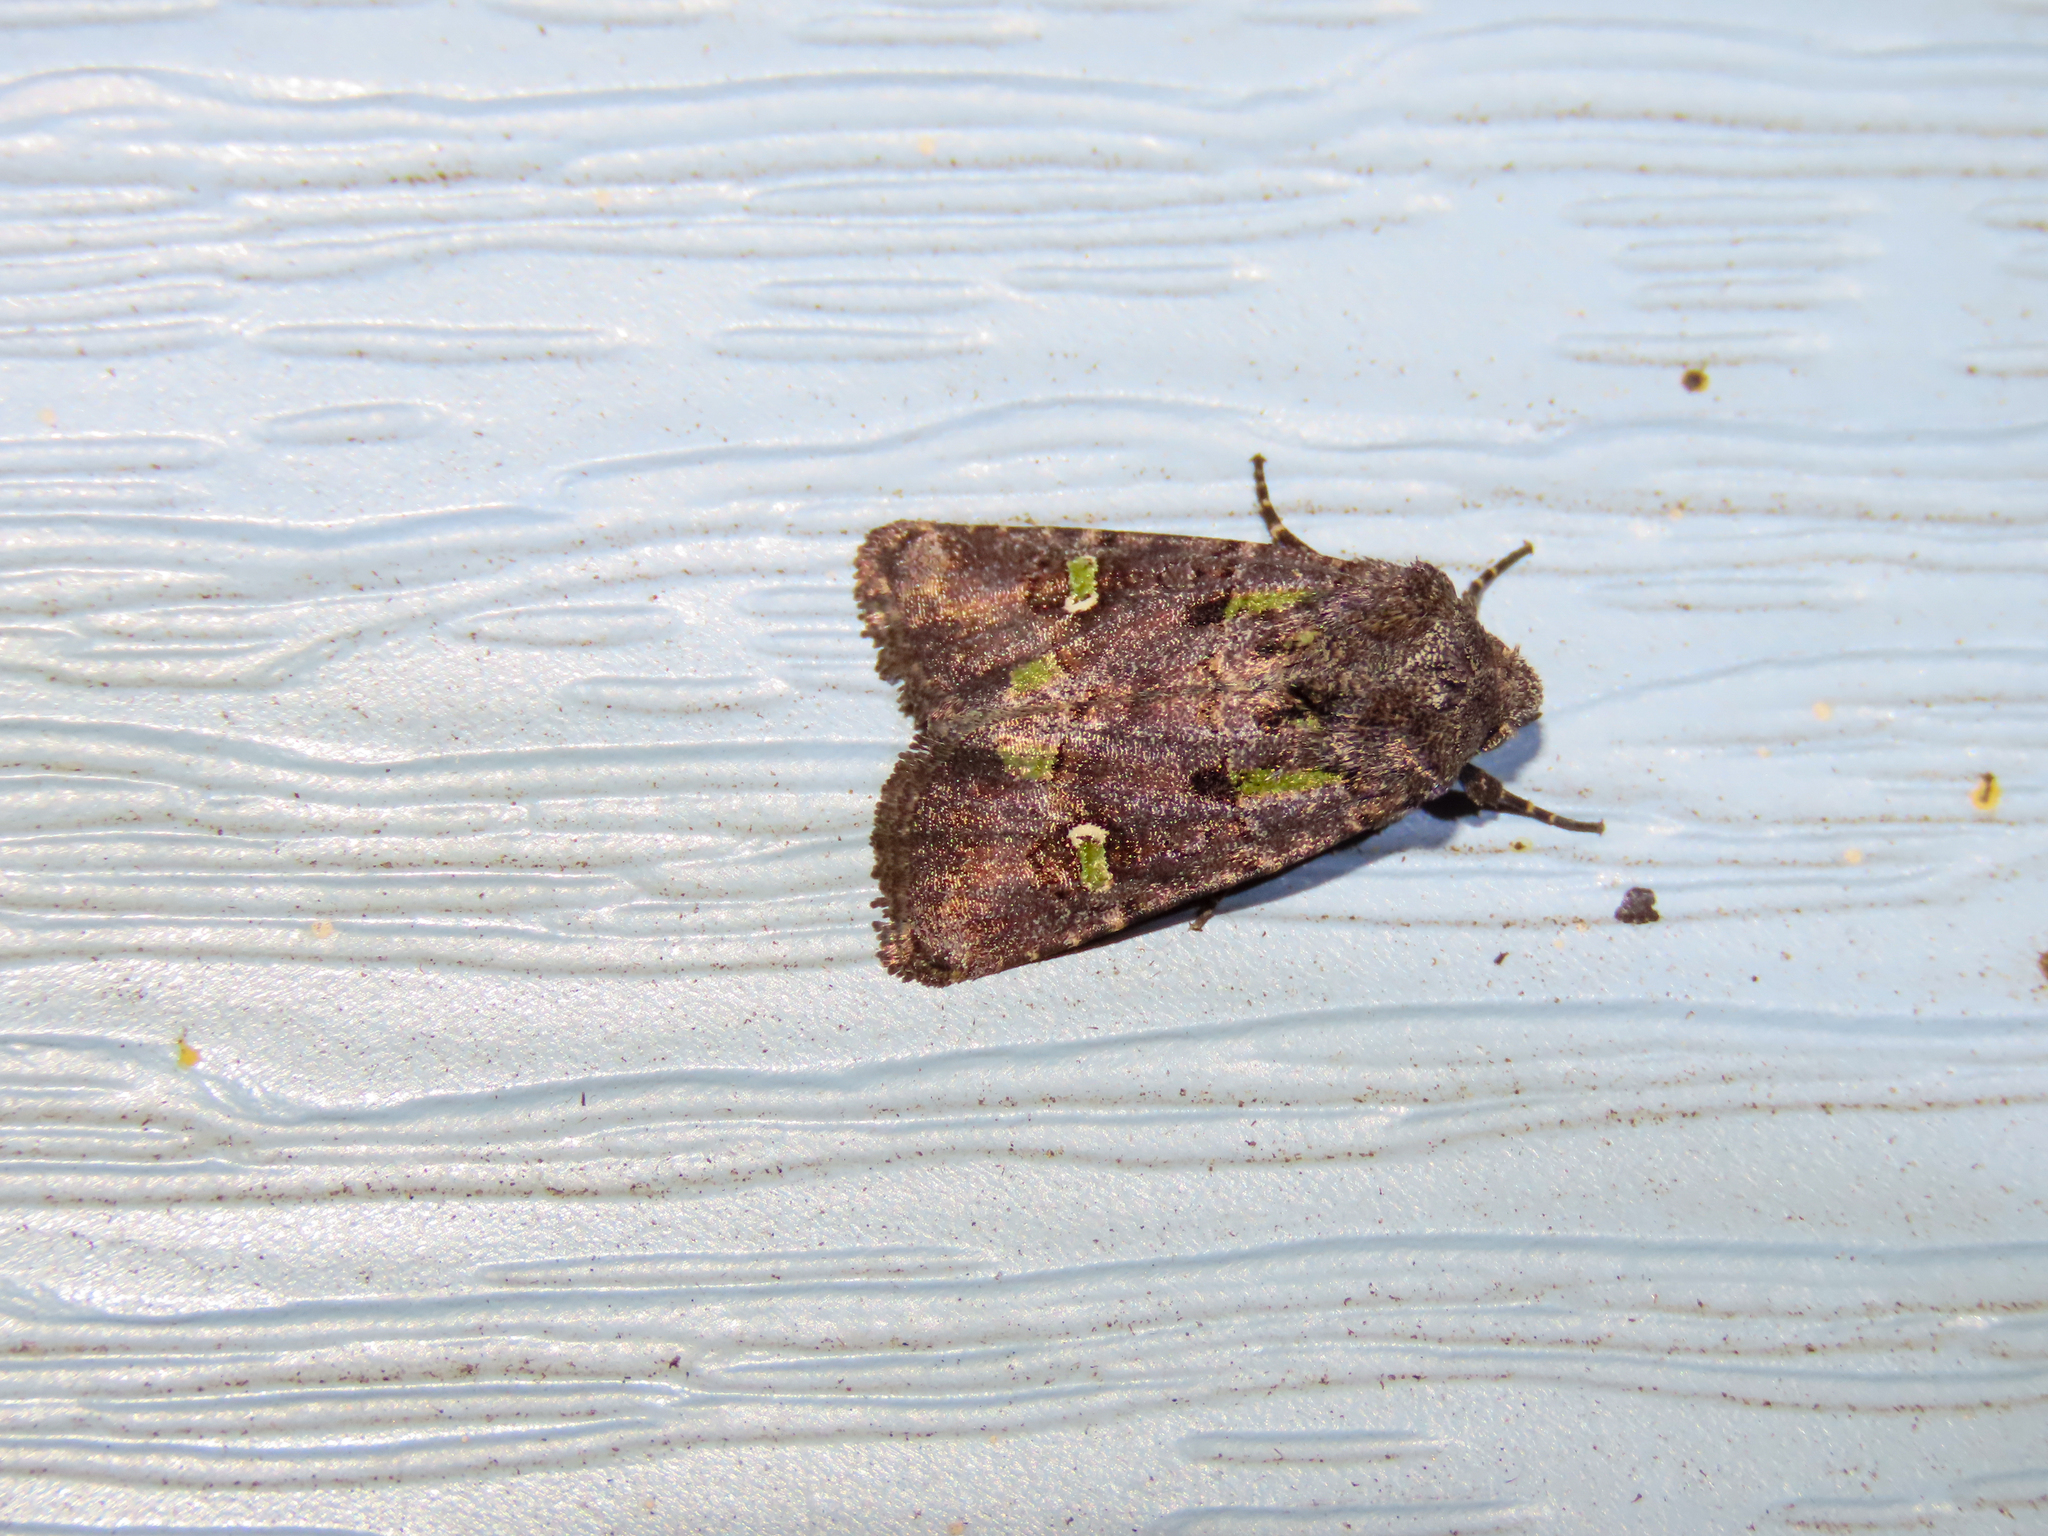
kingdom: Animalia
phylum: Arthropoda
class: Insecta
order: Lepidoptera
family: Noctuidae
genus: Lacinipolia
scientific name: Lacinipolia renigera
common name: Kidney-spotted minor
